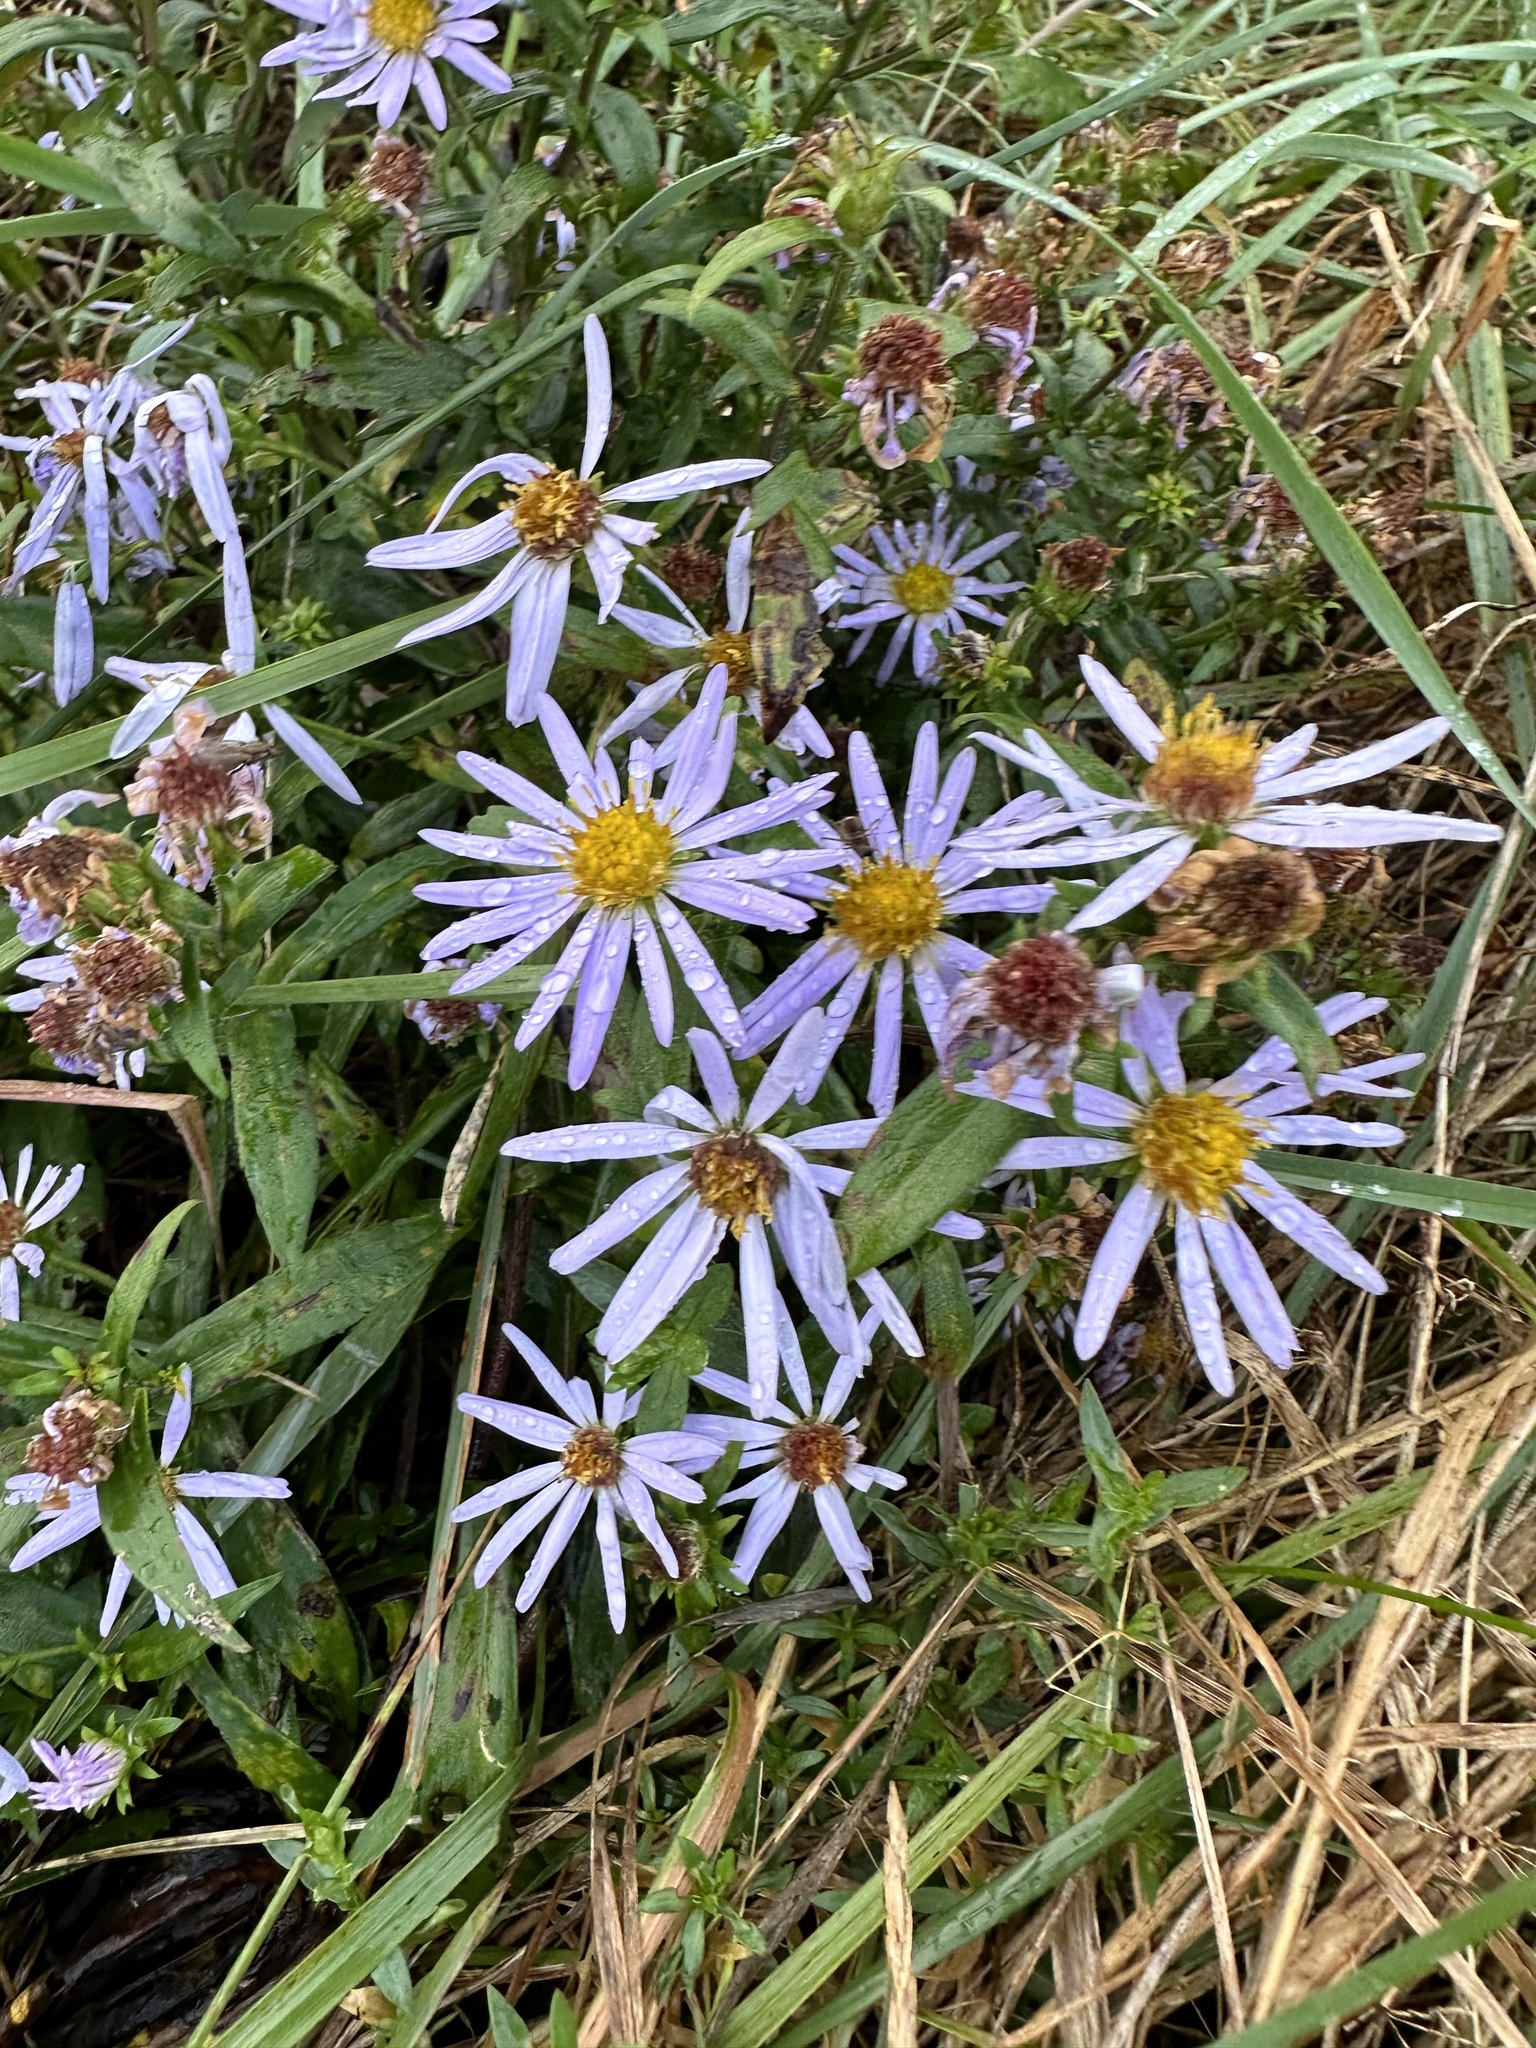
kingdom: Plantae
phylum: Tracheophyta
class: Magnoliopsida
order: Asterales
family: Asteraceae
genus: Symphyotrichum
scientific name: Symphyotrichum novi-belgii
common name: Michaelmas daisy
